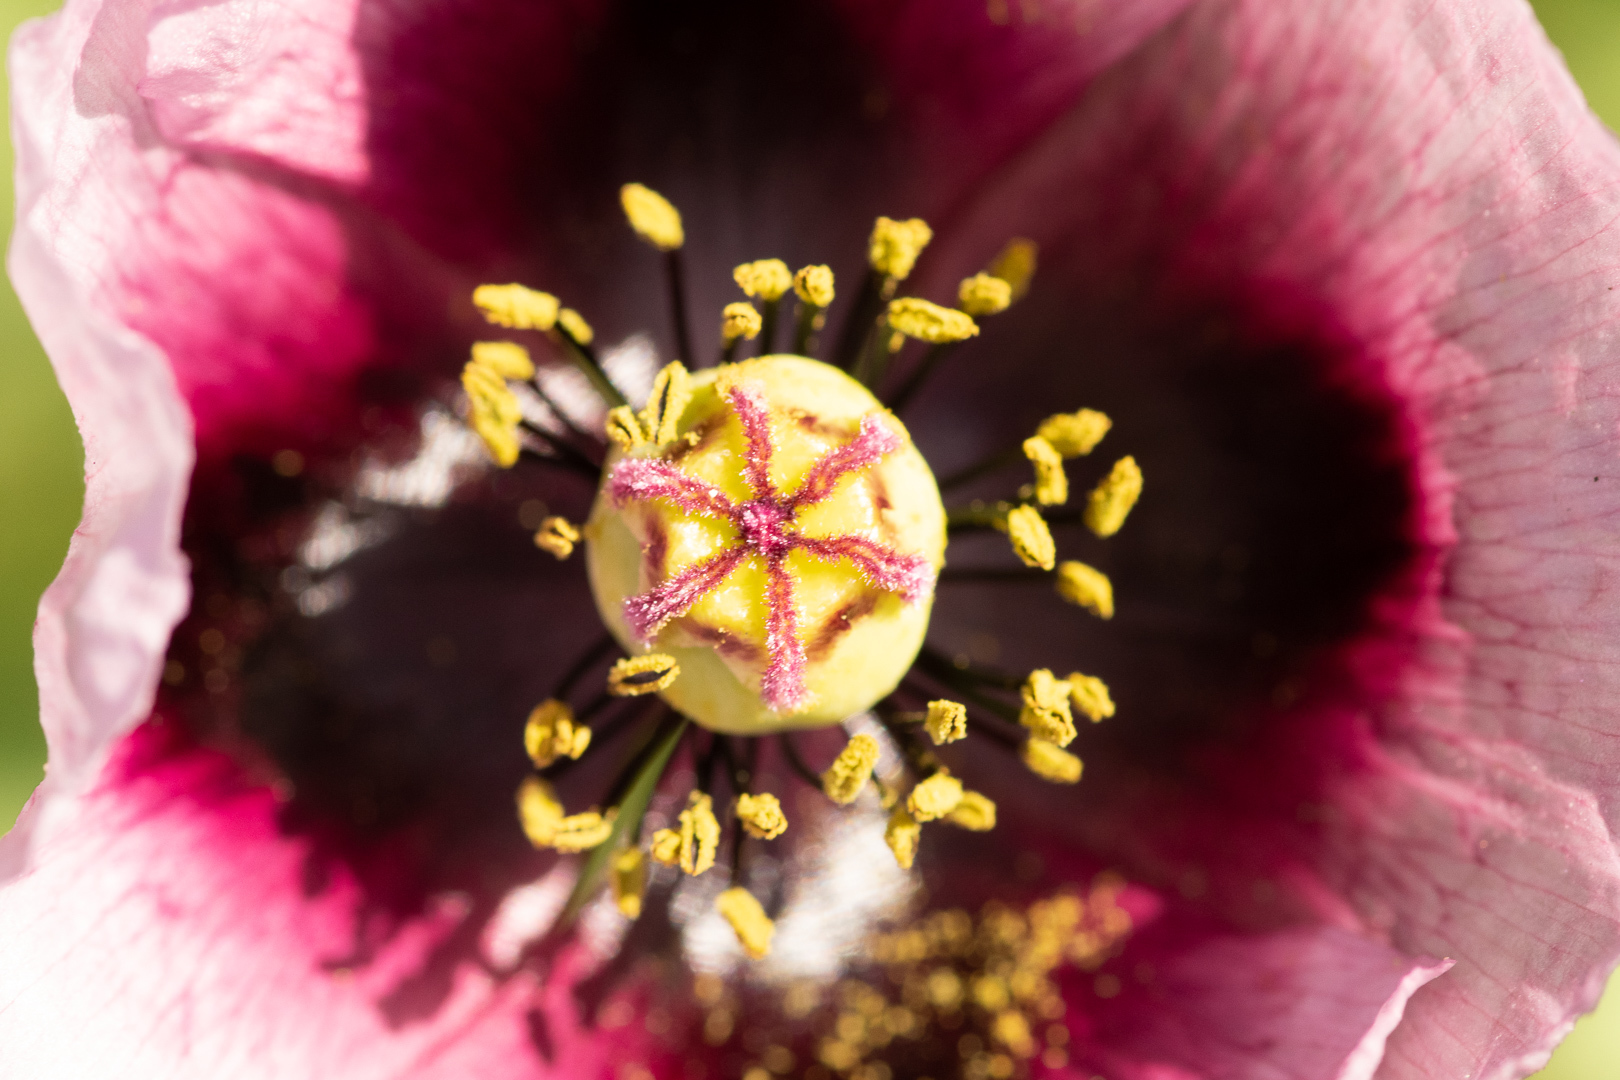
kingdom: Plantae
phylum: Tracheophyta
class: Magnoliopsida
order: Ranunculales
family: Papaveraceae
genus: Papaver
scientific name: Papaver somniferum
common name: Opium poppy
